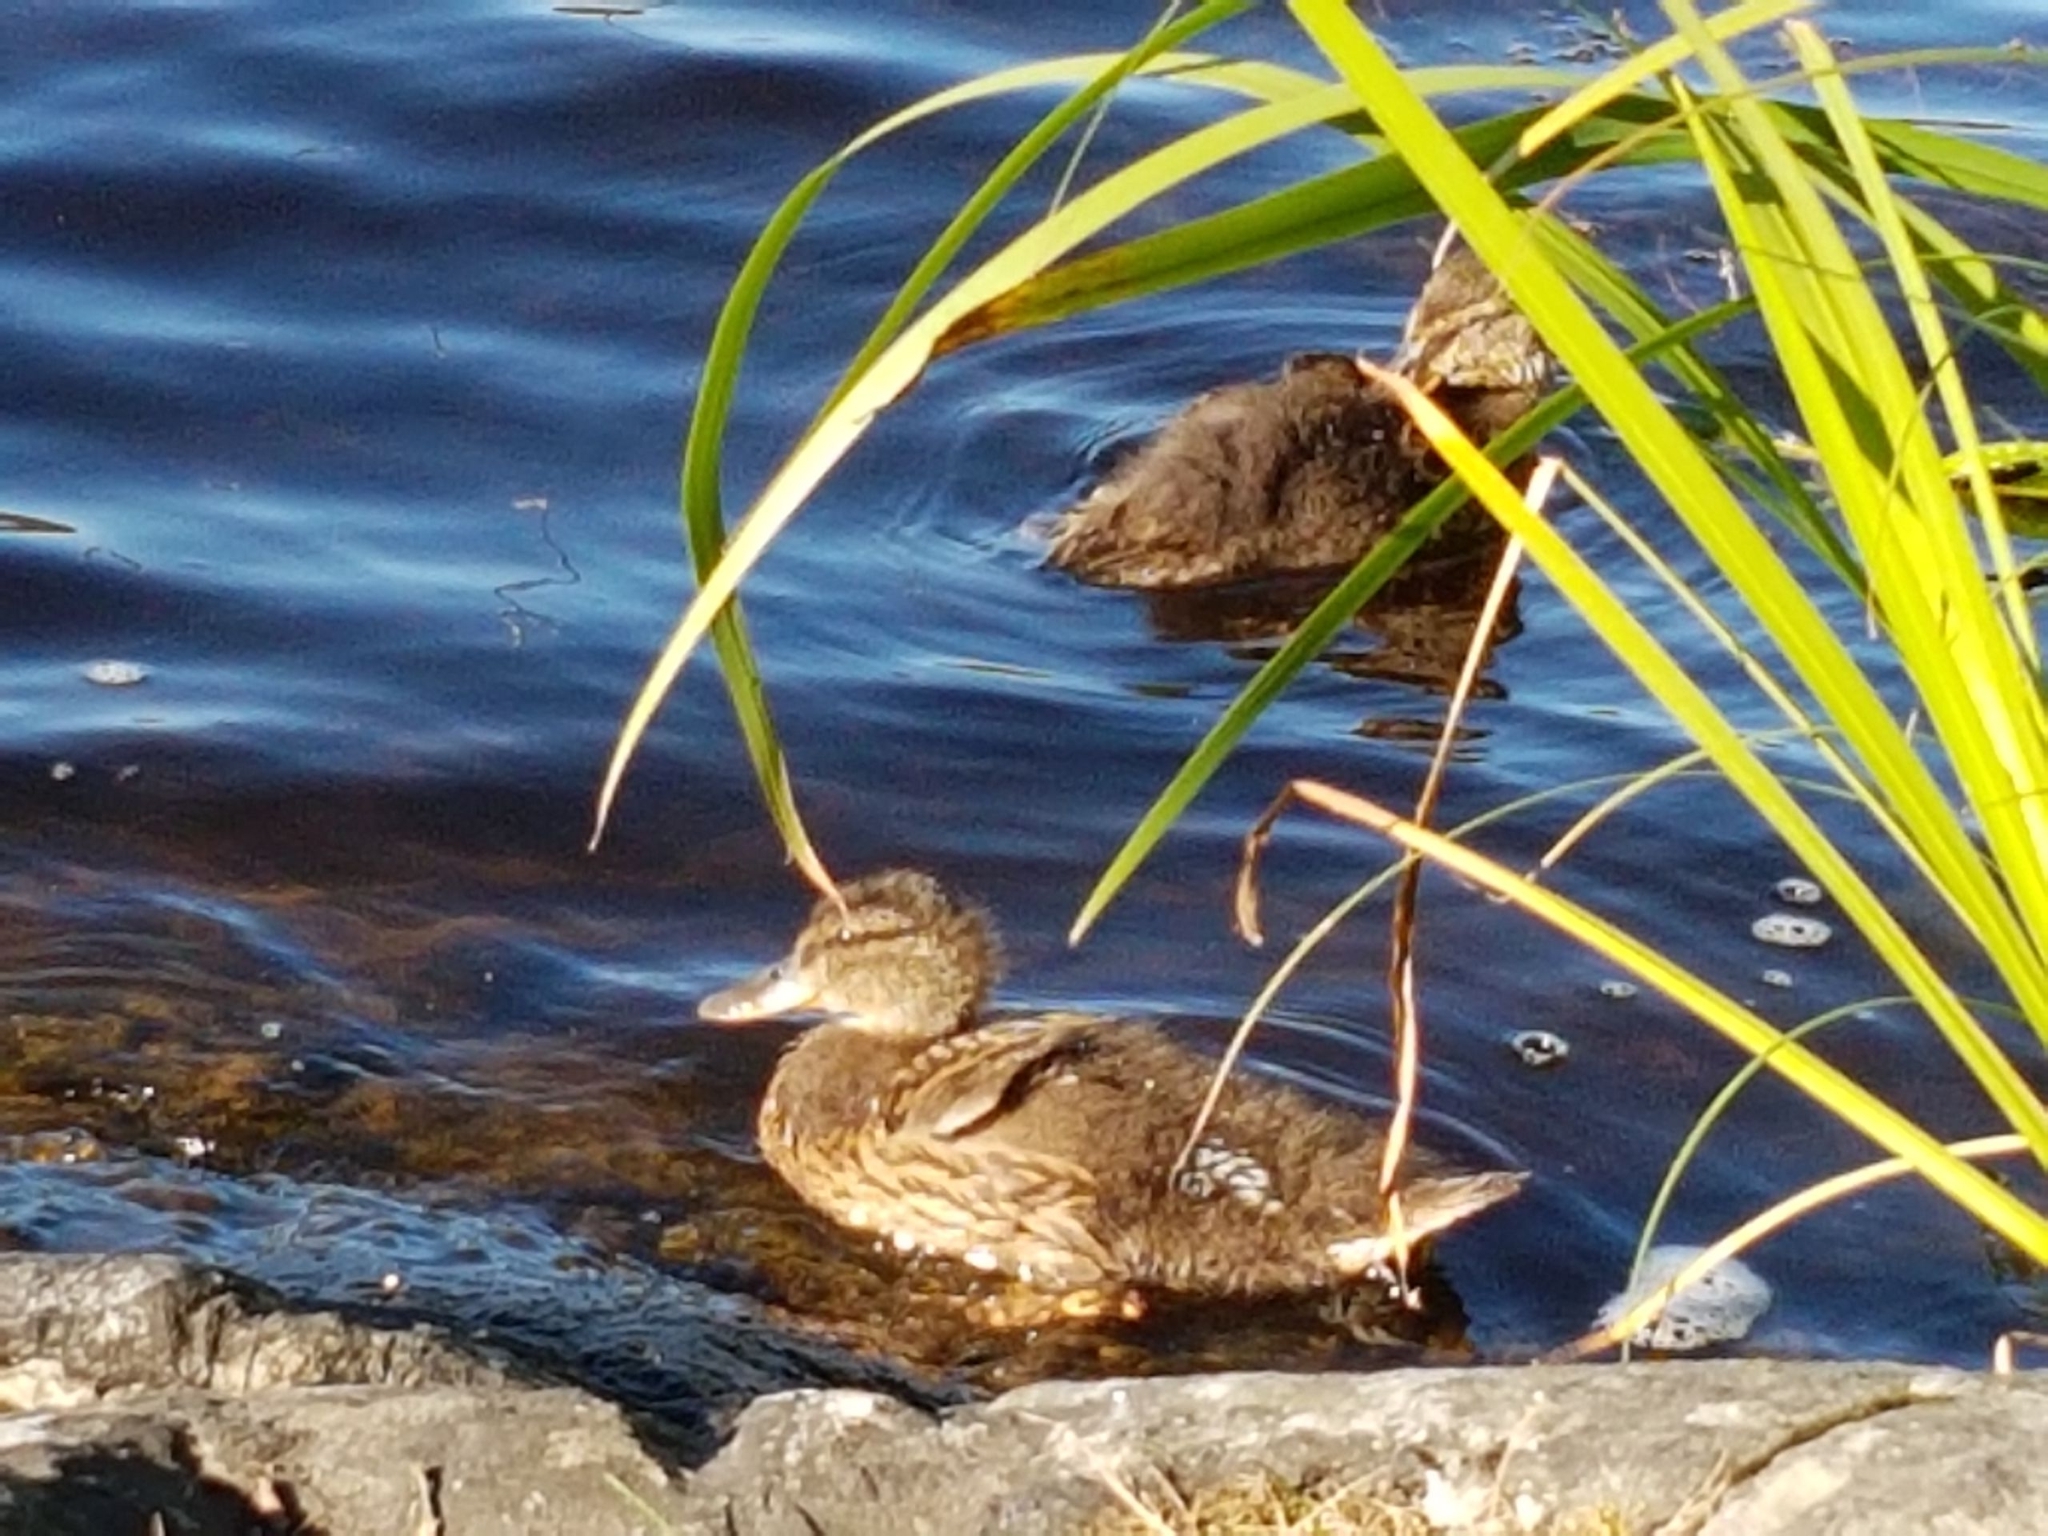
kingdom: Animalia
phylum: Chordata
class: Aves
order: Anseriformes
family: Anatidae
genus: Anas
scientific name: Anas platyrhynchos
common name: Mallard
